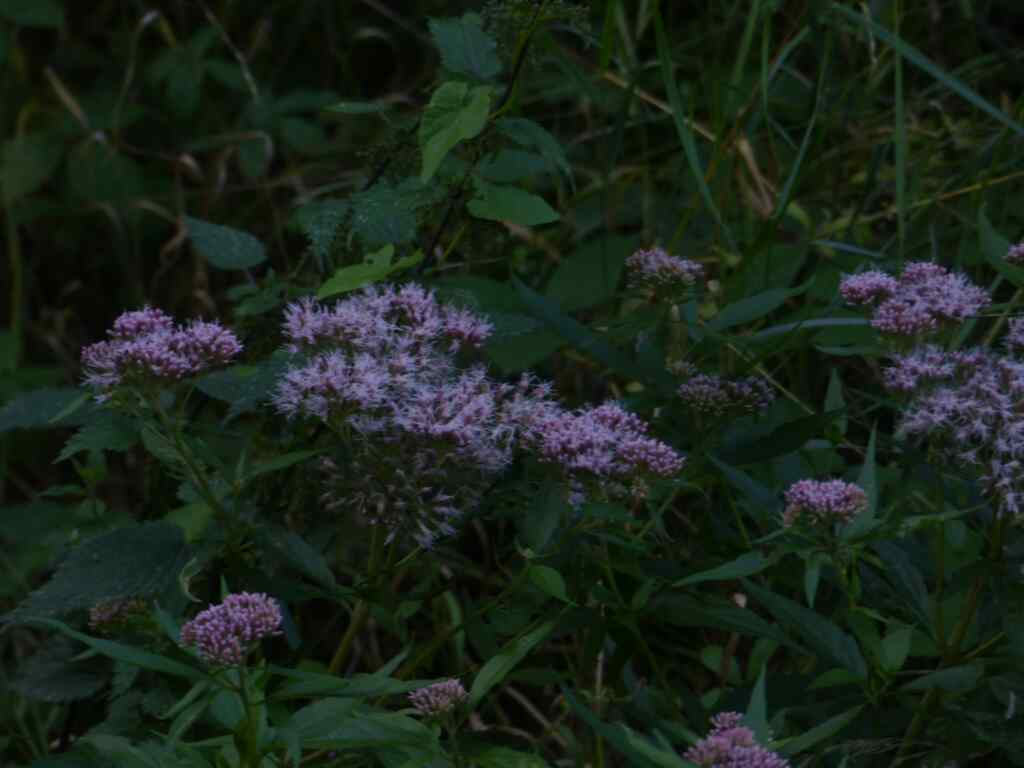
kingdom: Plantae
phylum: Tracheophyta
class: Magnoliopsida
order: Asterales
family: Asteraceae
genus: Eupatorium
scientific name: Eupatorium cannabinum
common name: Hemp-agrimony
